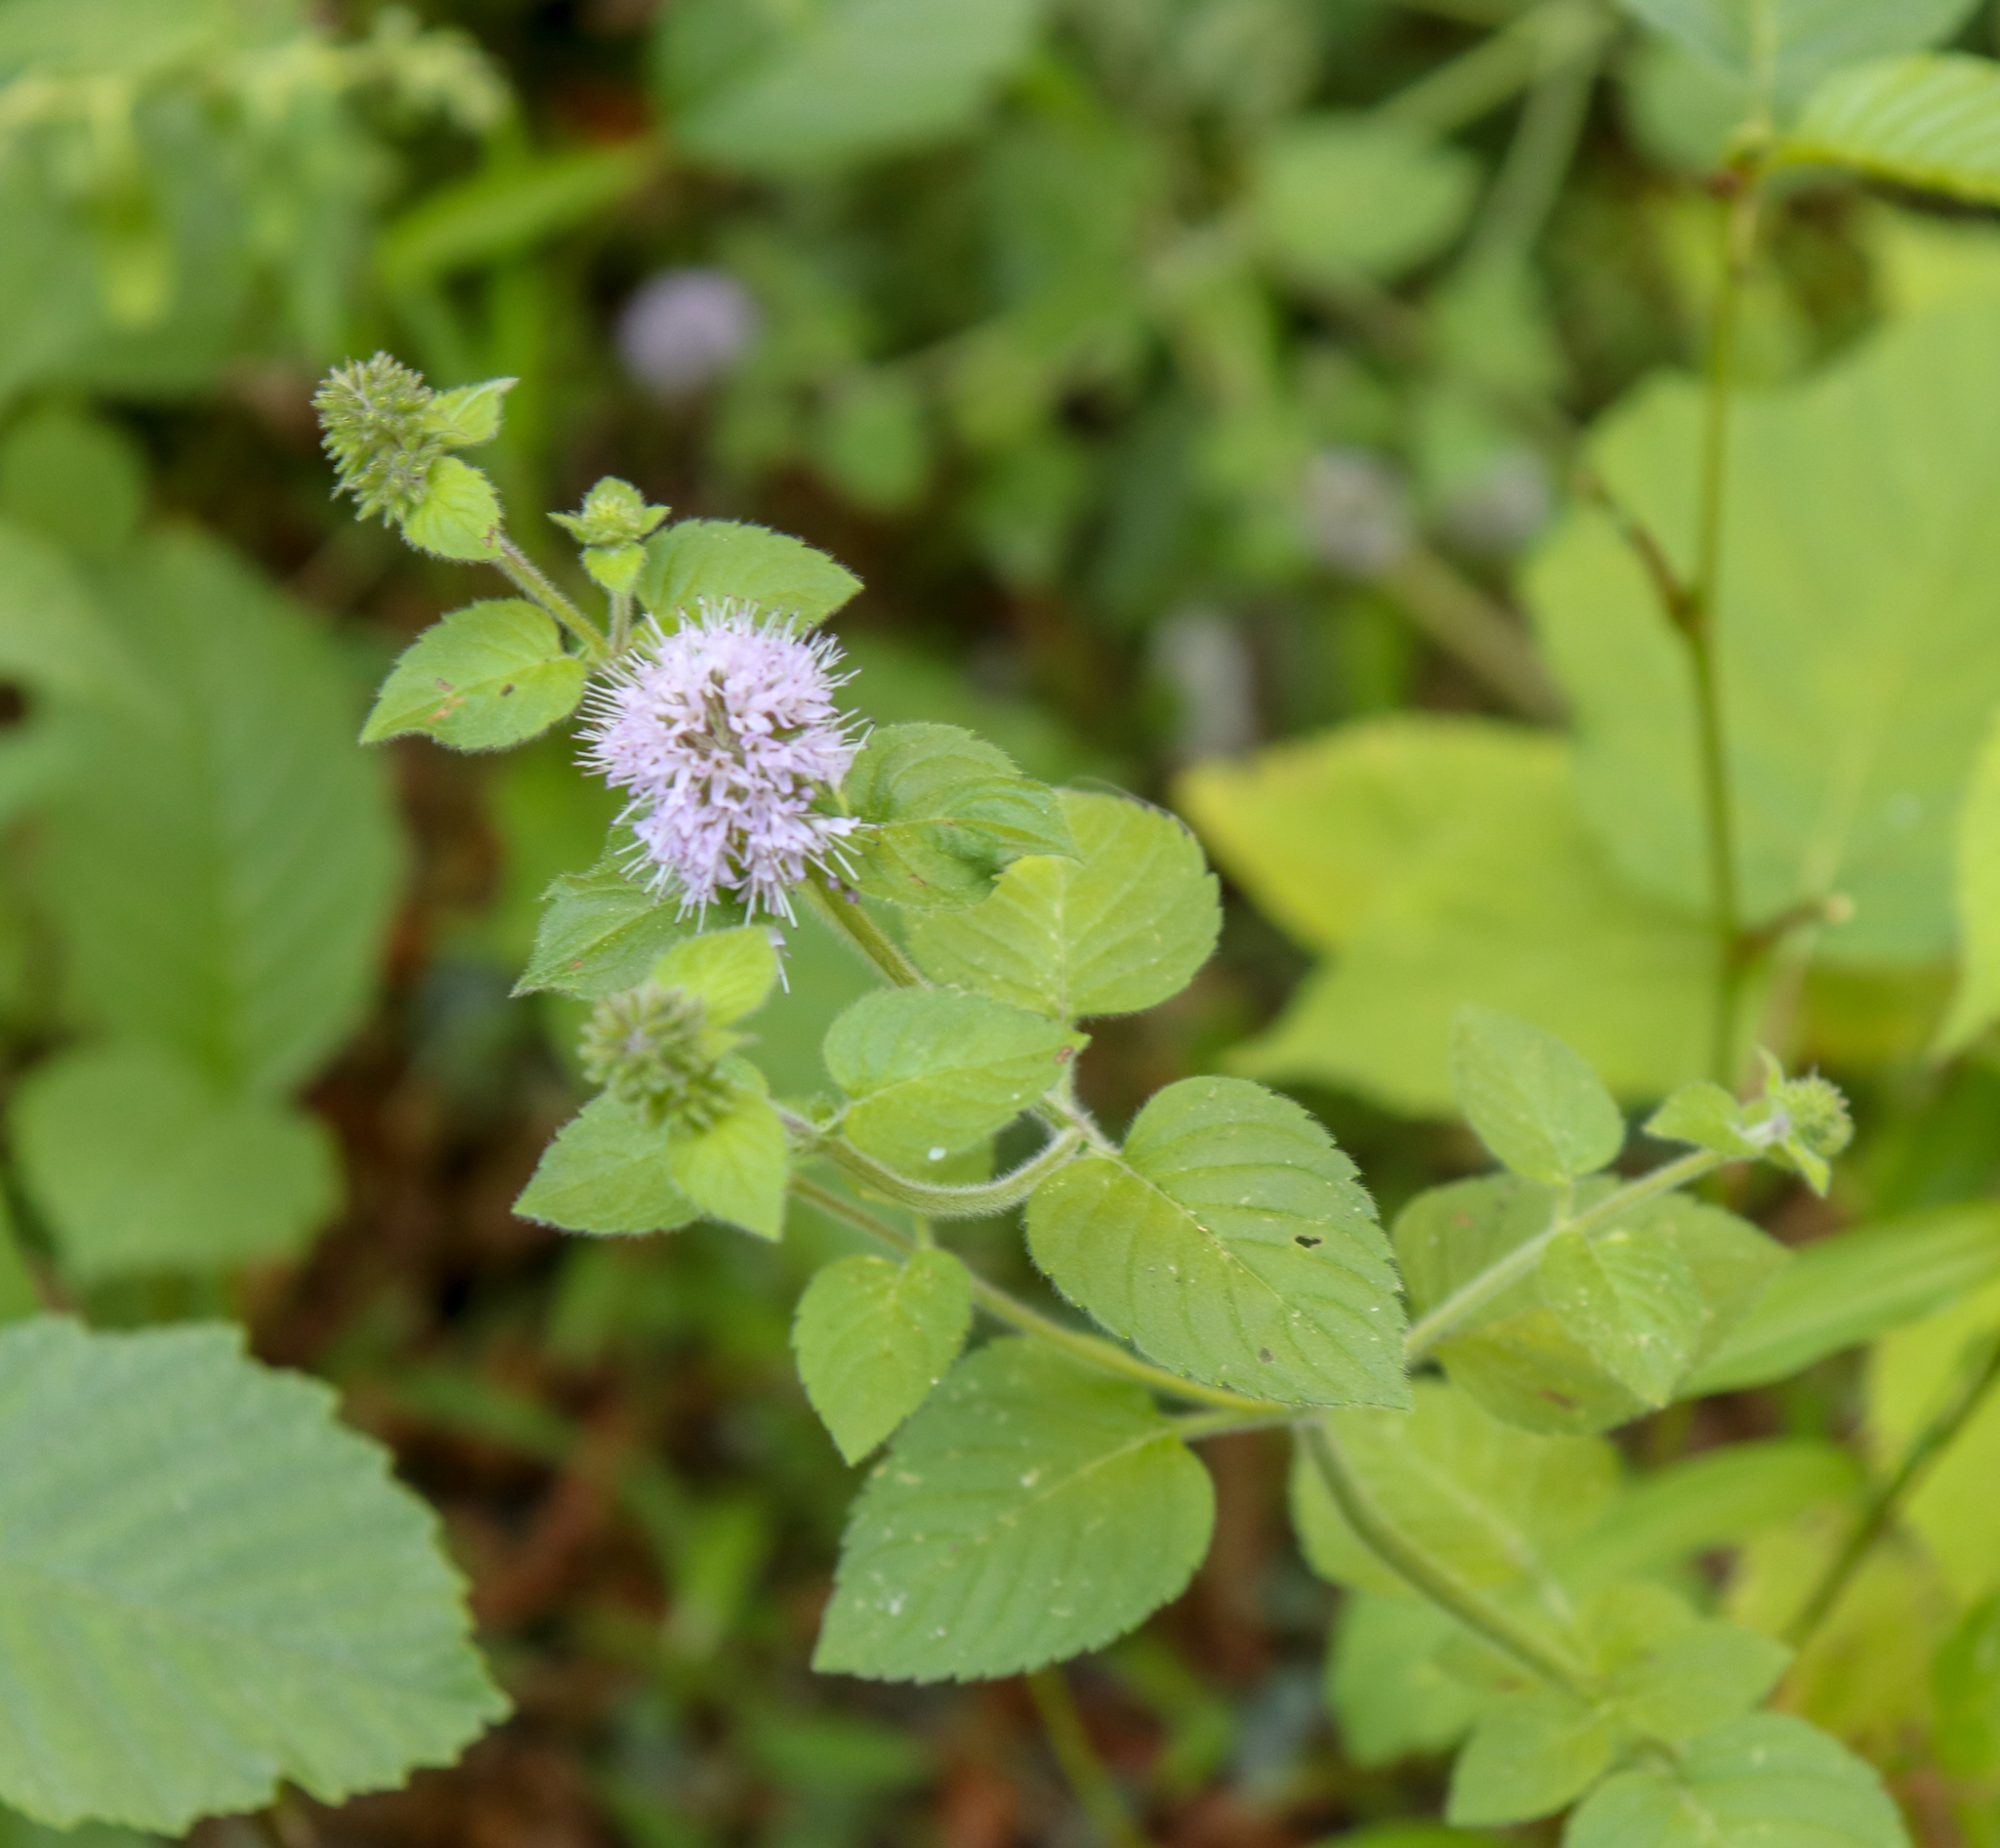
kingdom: Plantae
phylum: Tracheophyta
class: Magnoliopsida
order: Lamiales
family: Lamiaceae
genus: Mentha
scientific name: Mentha aquatica
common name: Water mint
